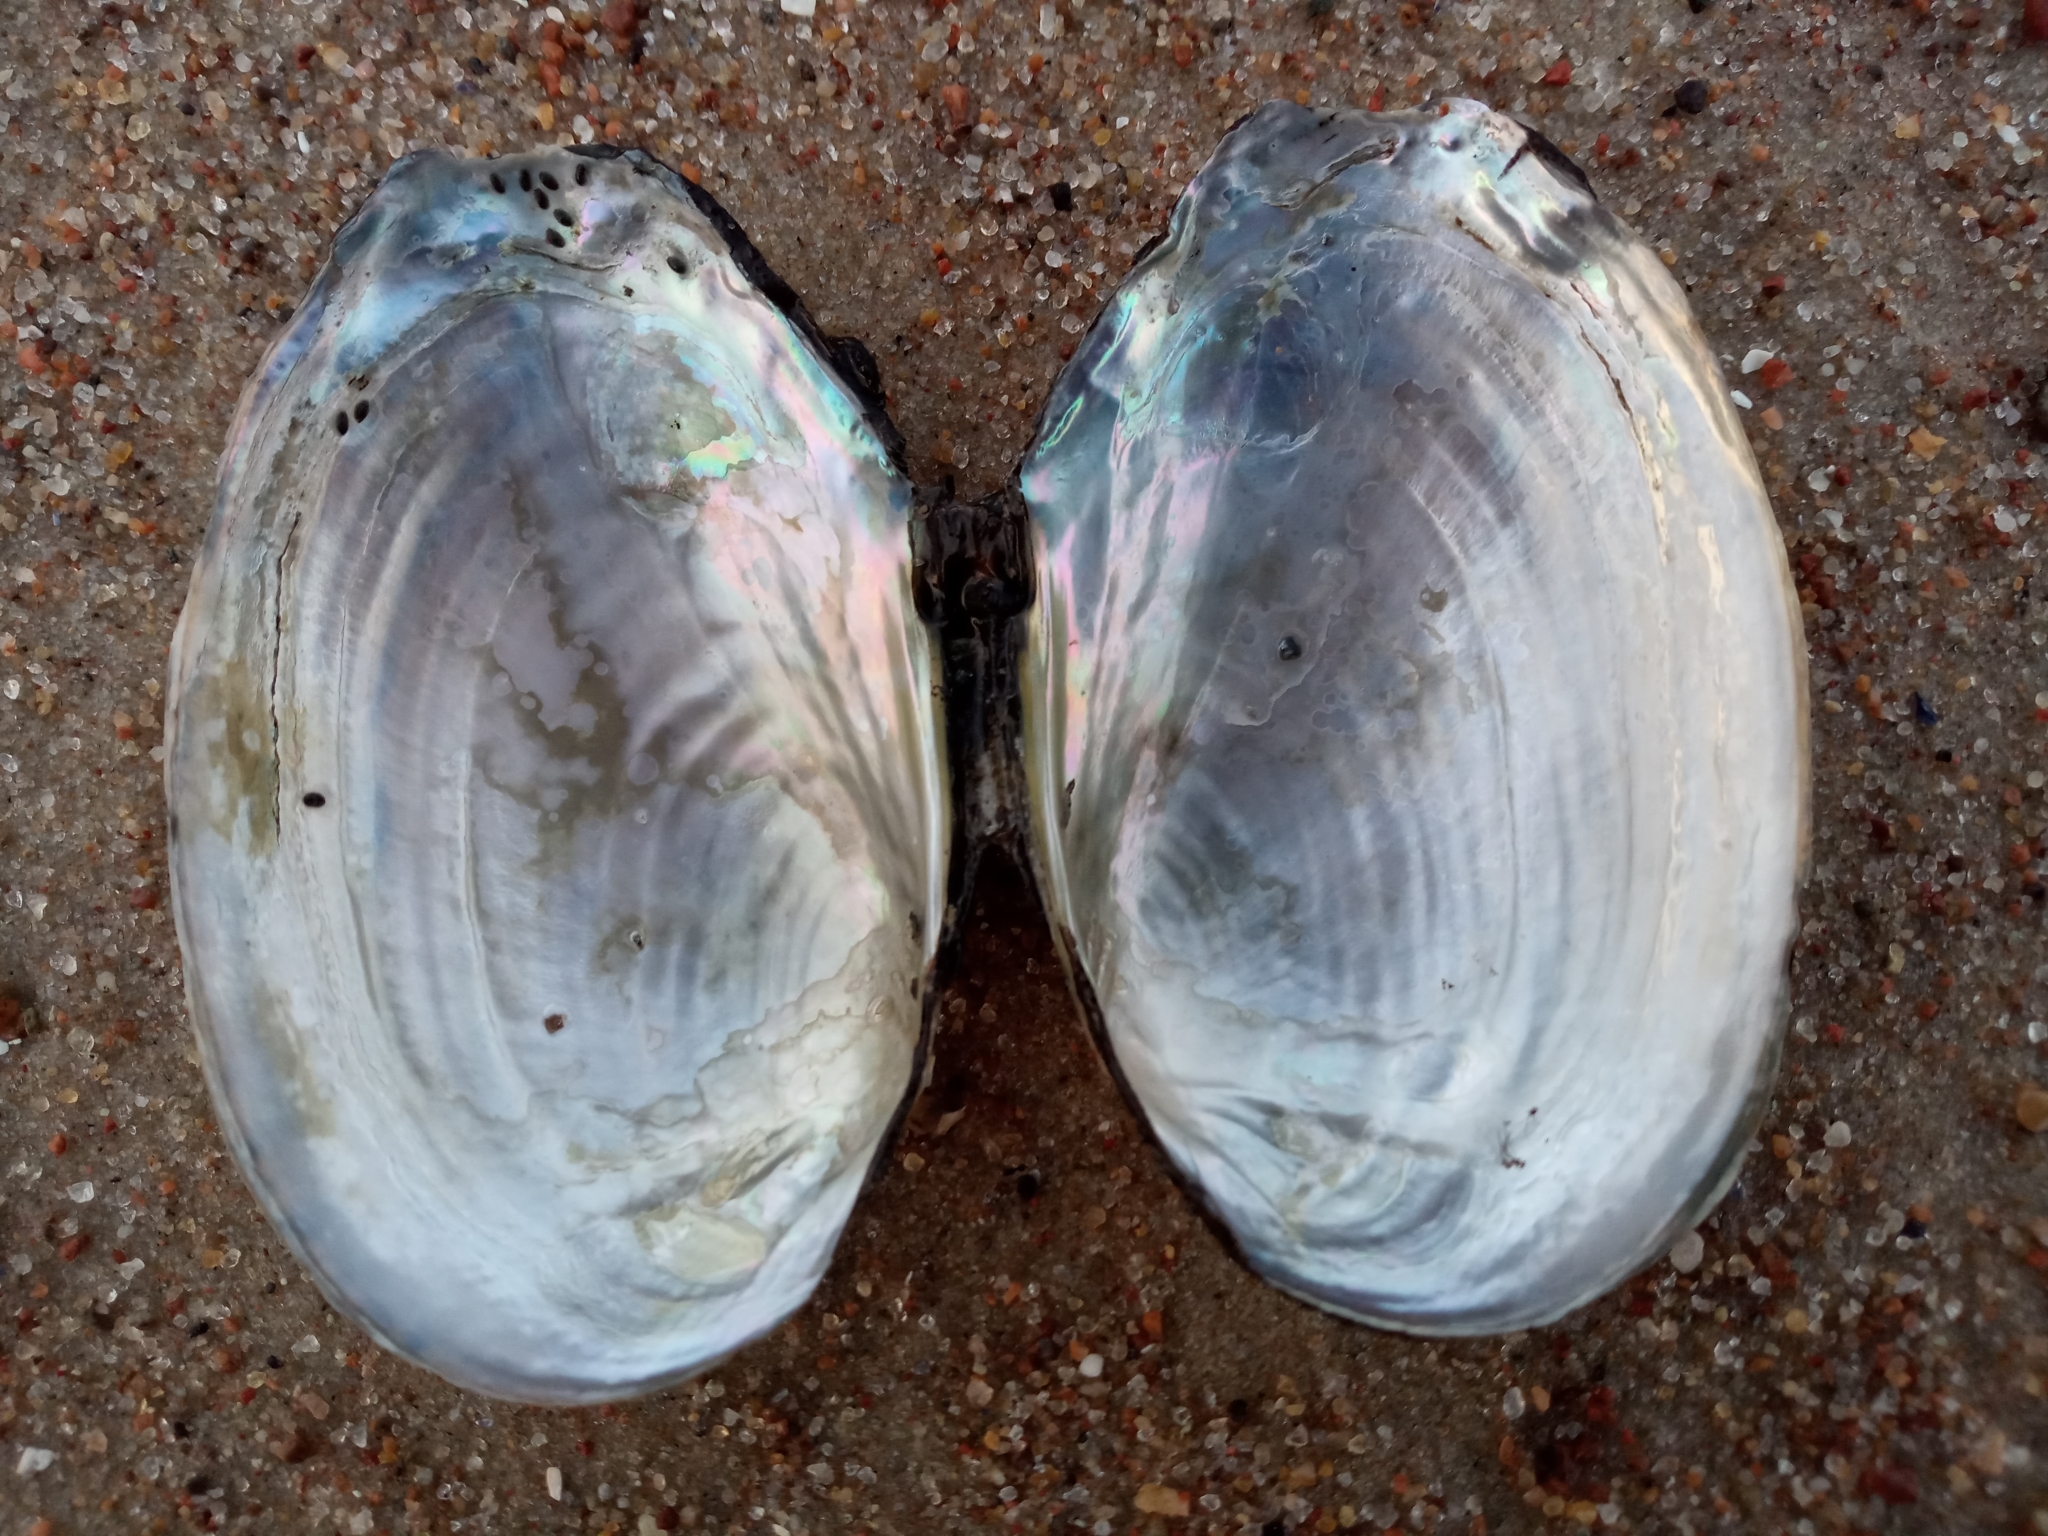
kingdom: Animalia
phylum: Mollusca
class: Bivalvia
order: Unionida
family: Unionidae
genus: Anodonta
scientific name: Anodonta anatina
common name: Duck mussel
